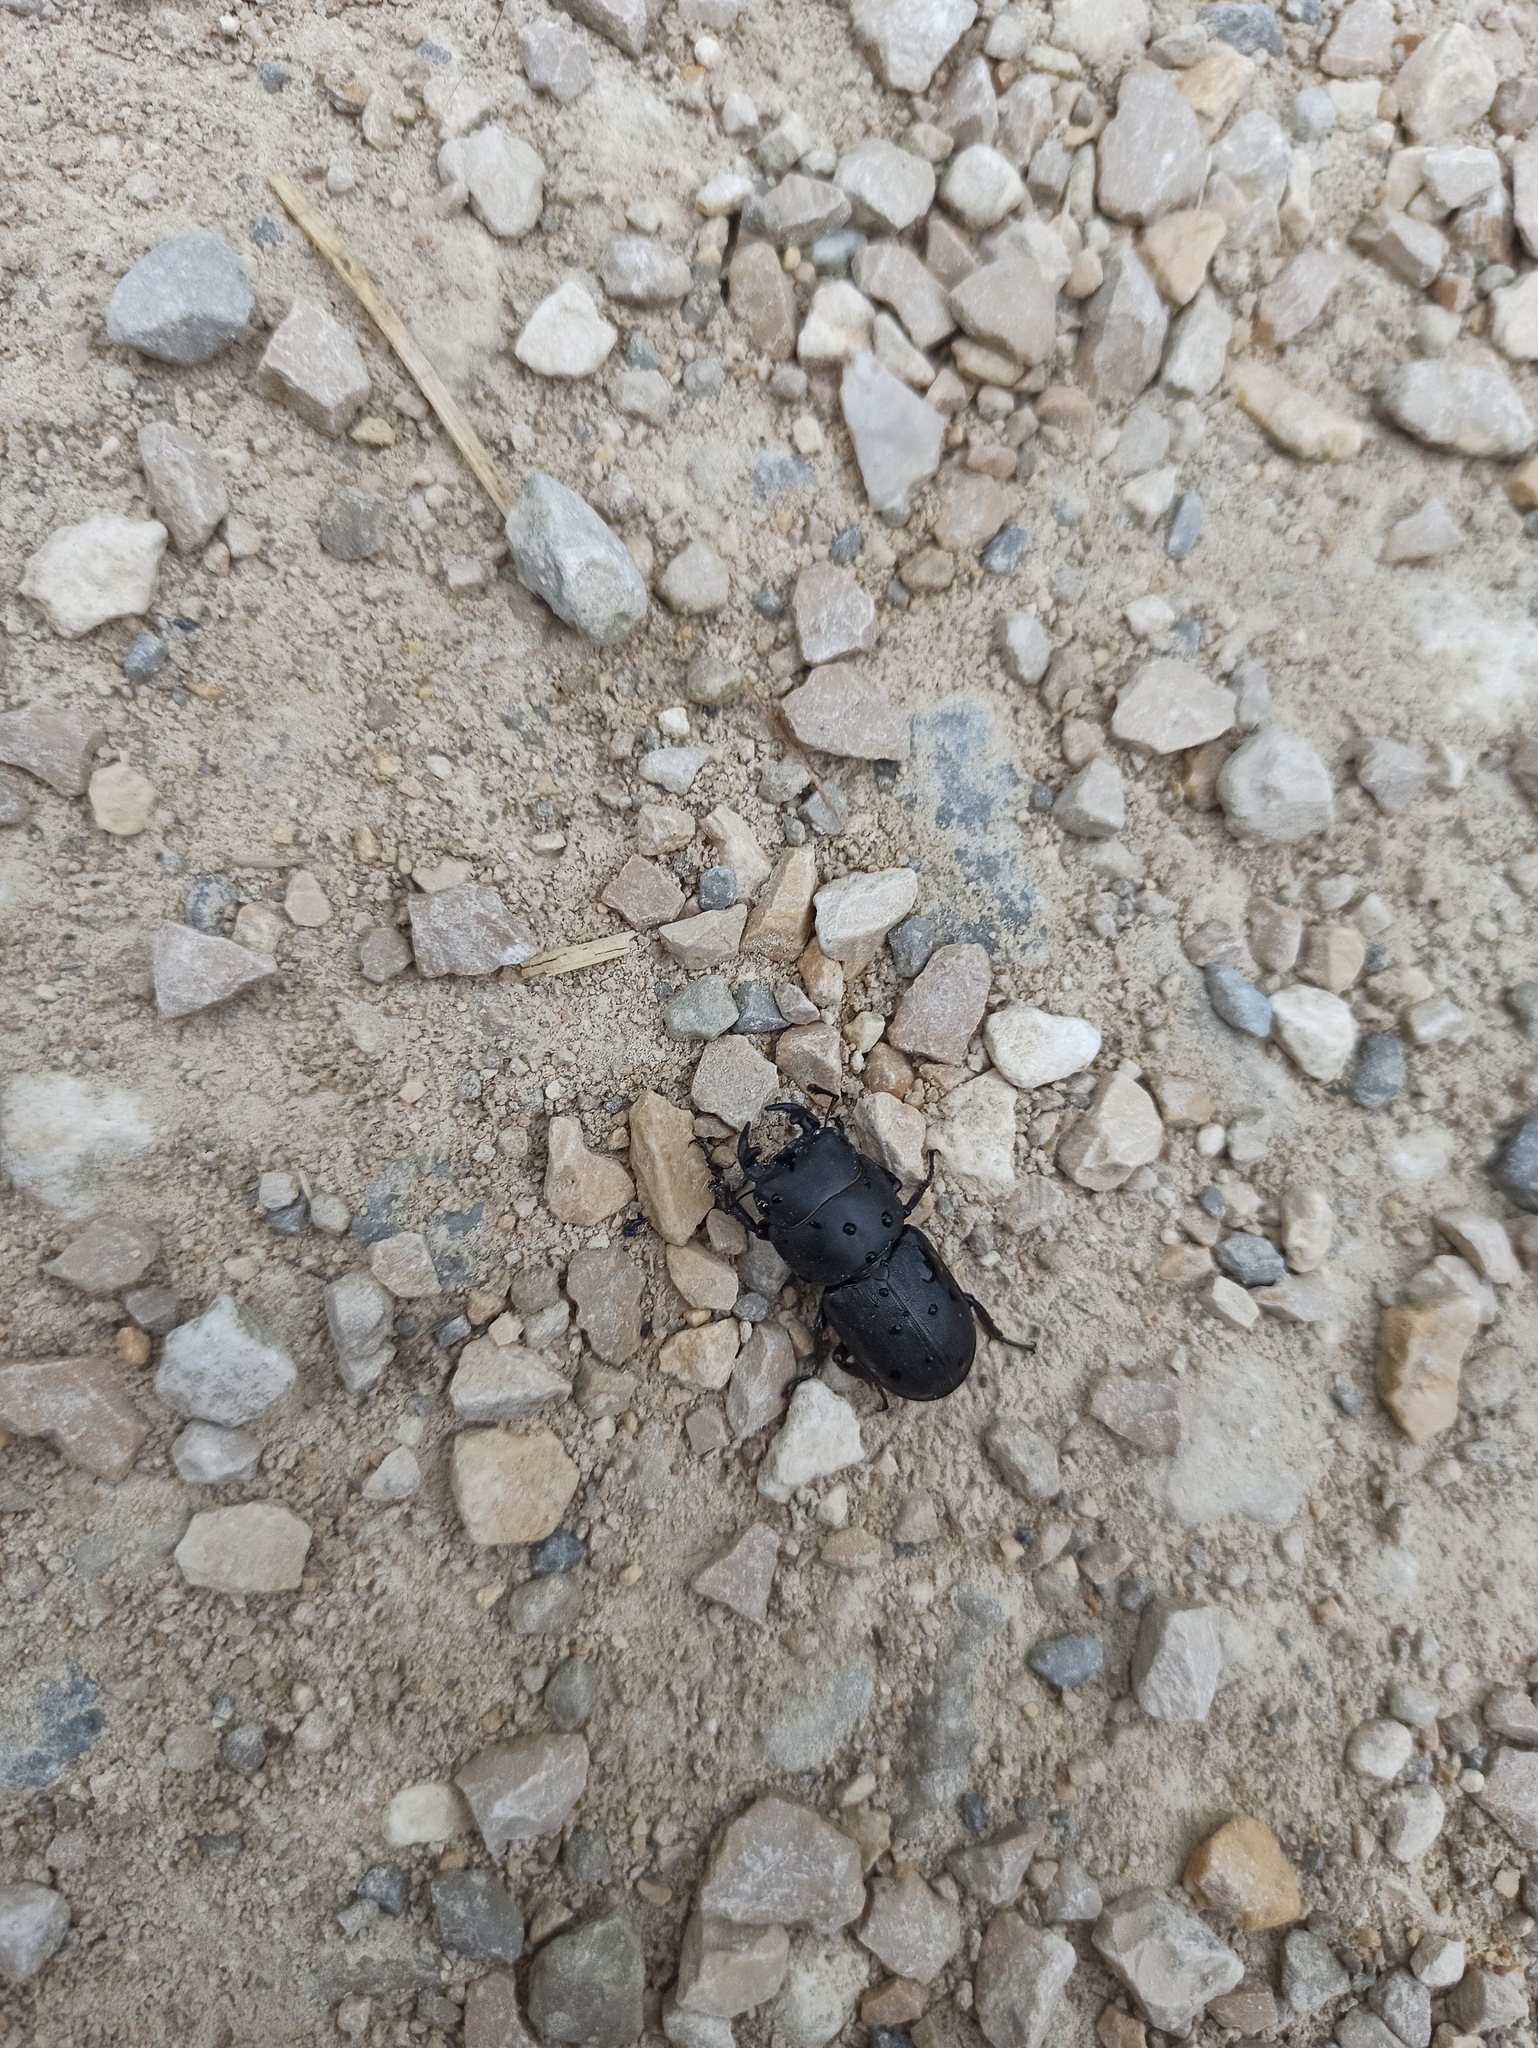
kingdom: Animalia
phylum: Arthropoda
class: Insecta
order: Coleoptera
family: Lucanidae
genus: Dorcus
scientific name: Dorcus parallelipipedus
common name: Lesser stag beetle
